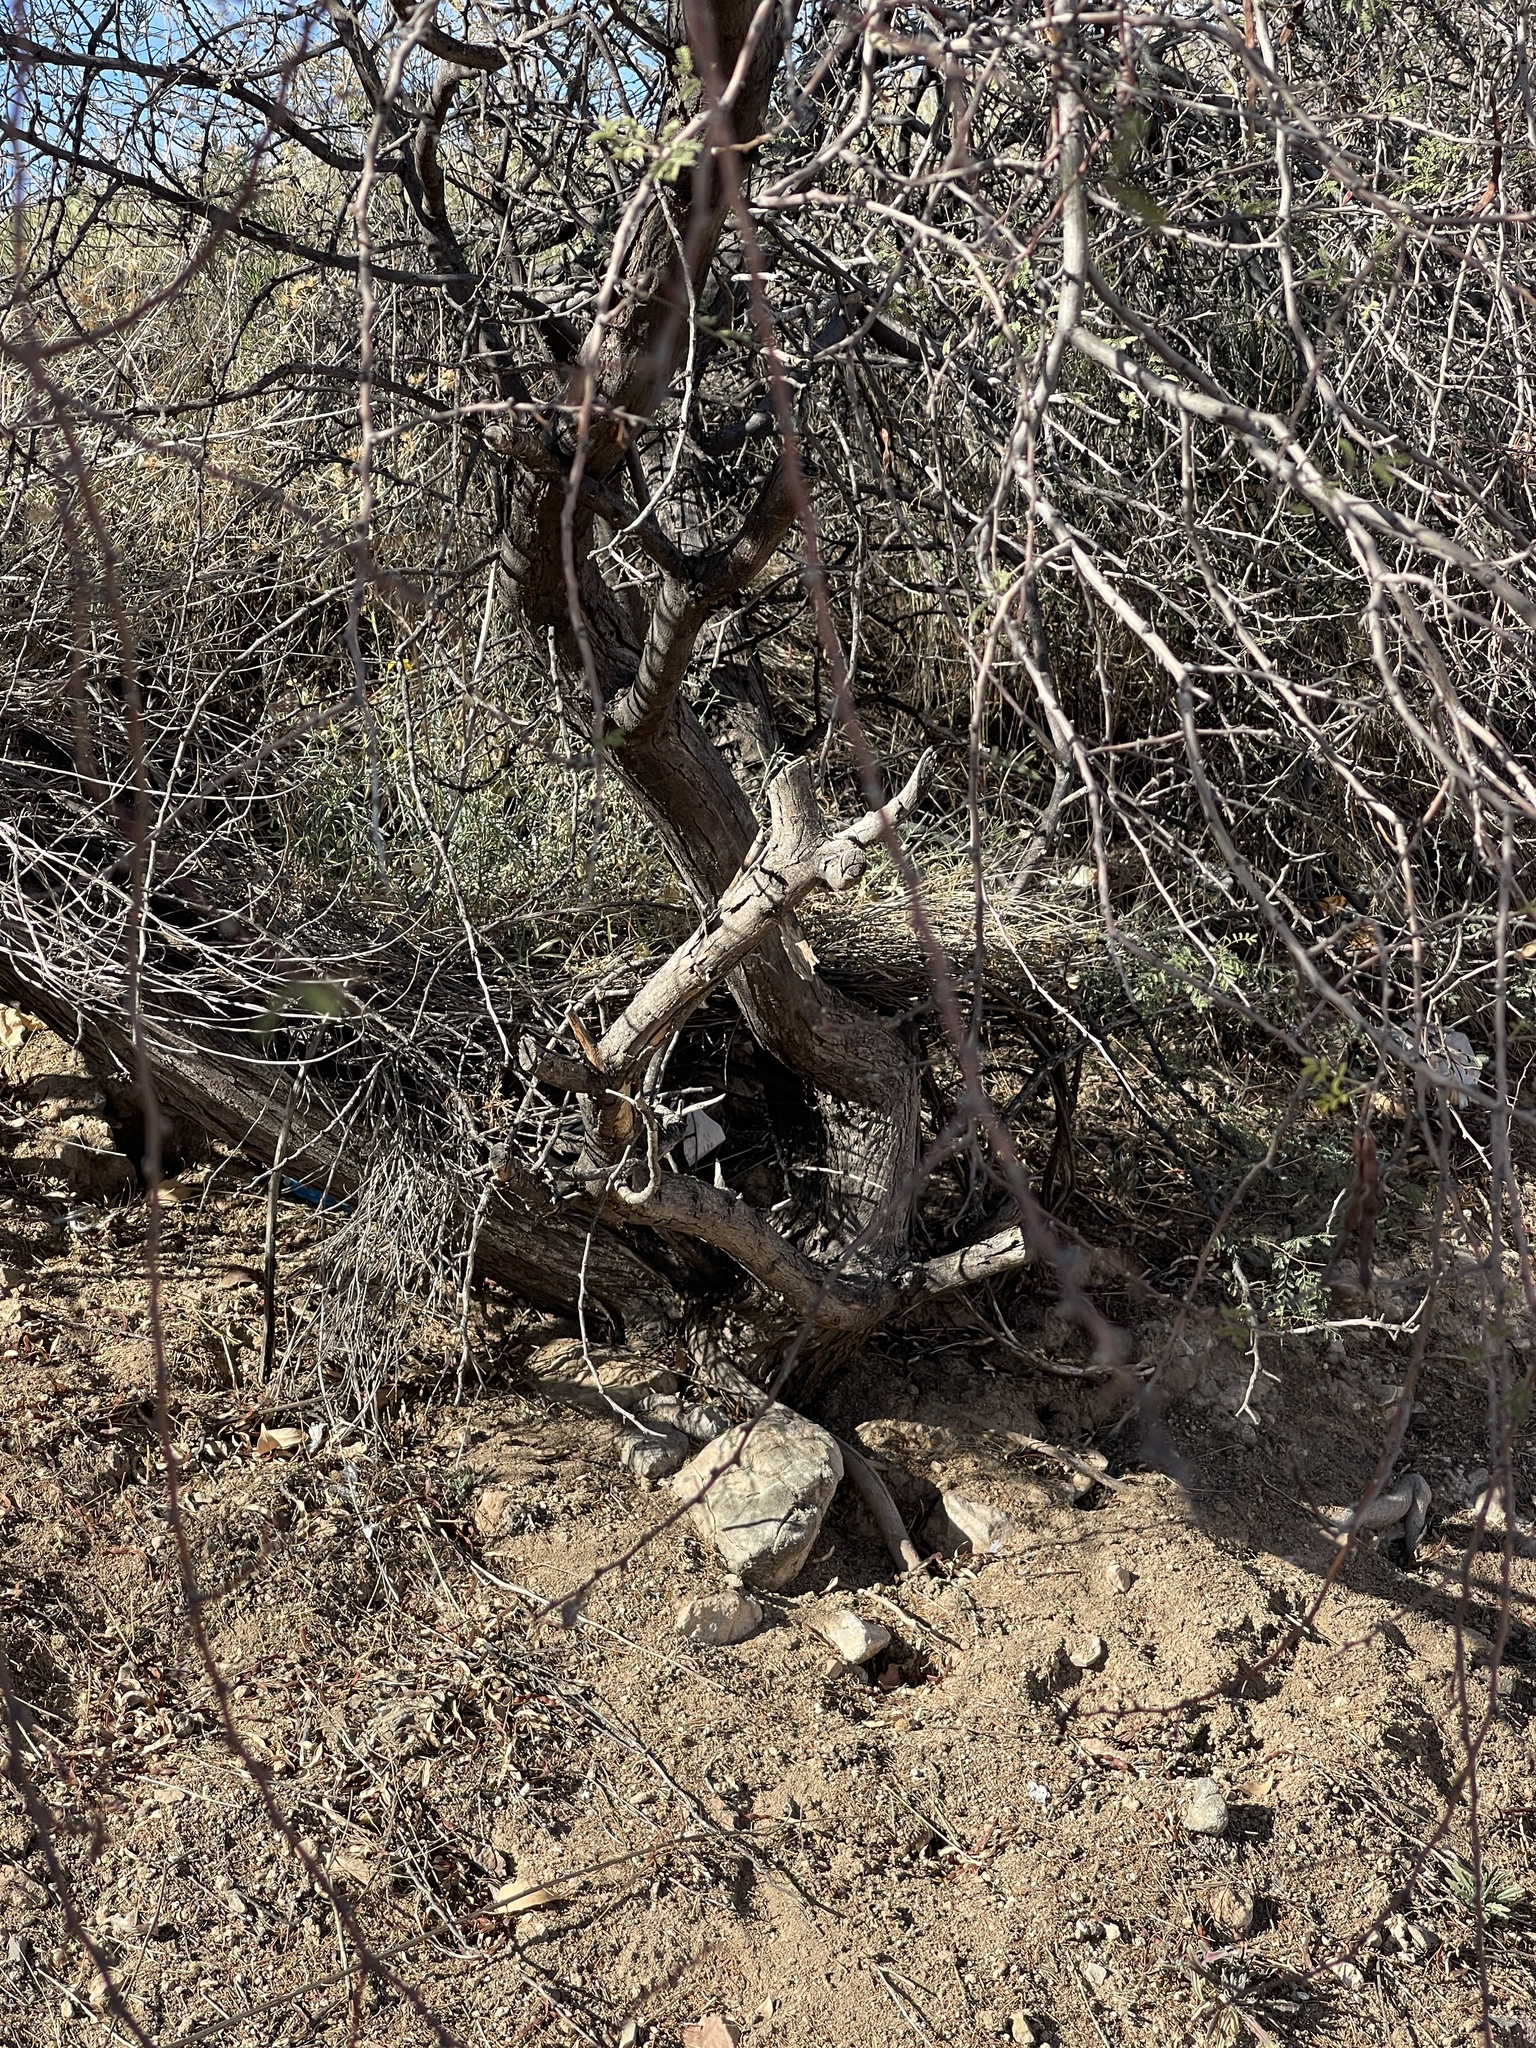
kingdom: Plantae
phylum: Tracheophyta
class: Magnoliopsida
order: Fabales
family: Fabaceae
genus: Vachellia
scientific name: Vachellia constricta
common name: Mescat acacia
